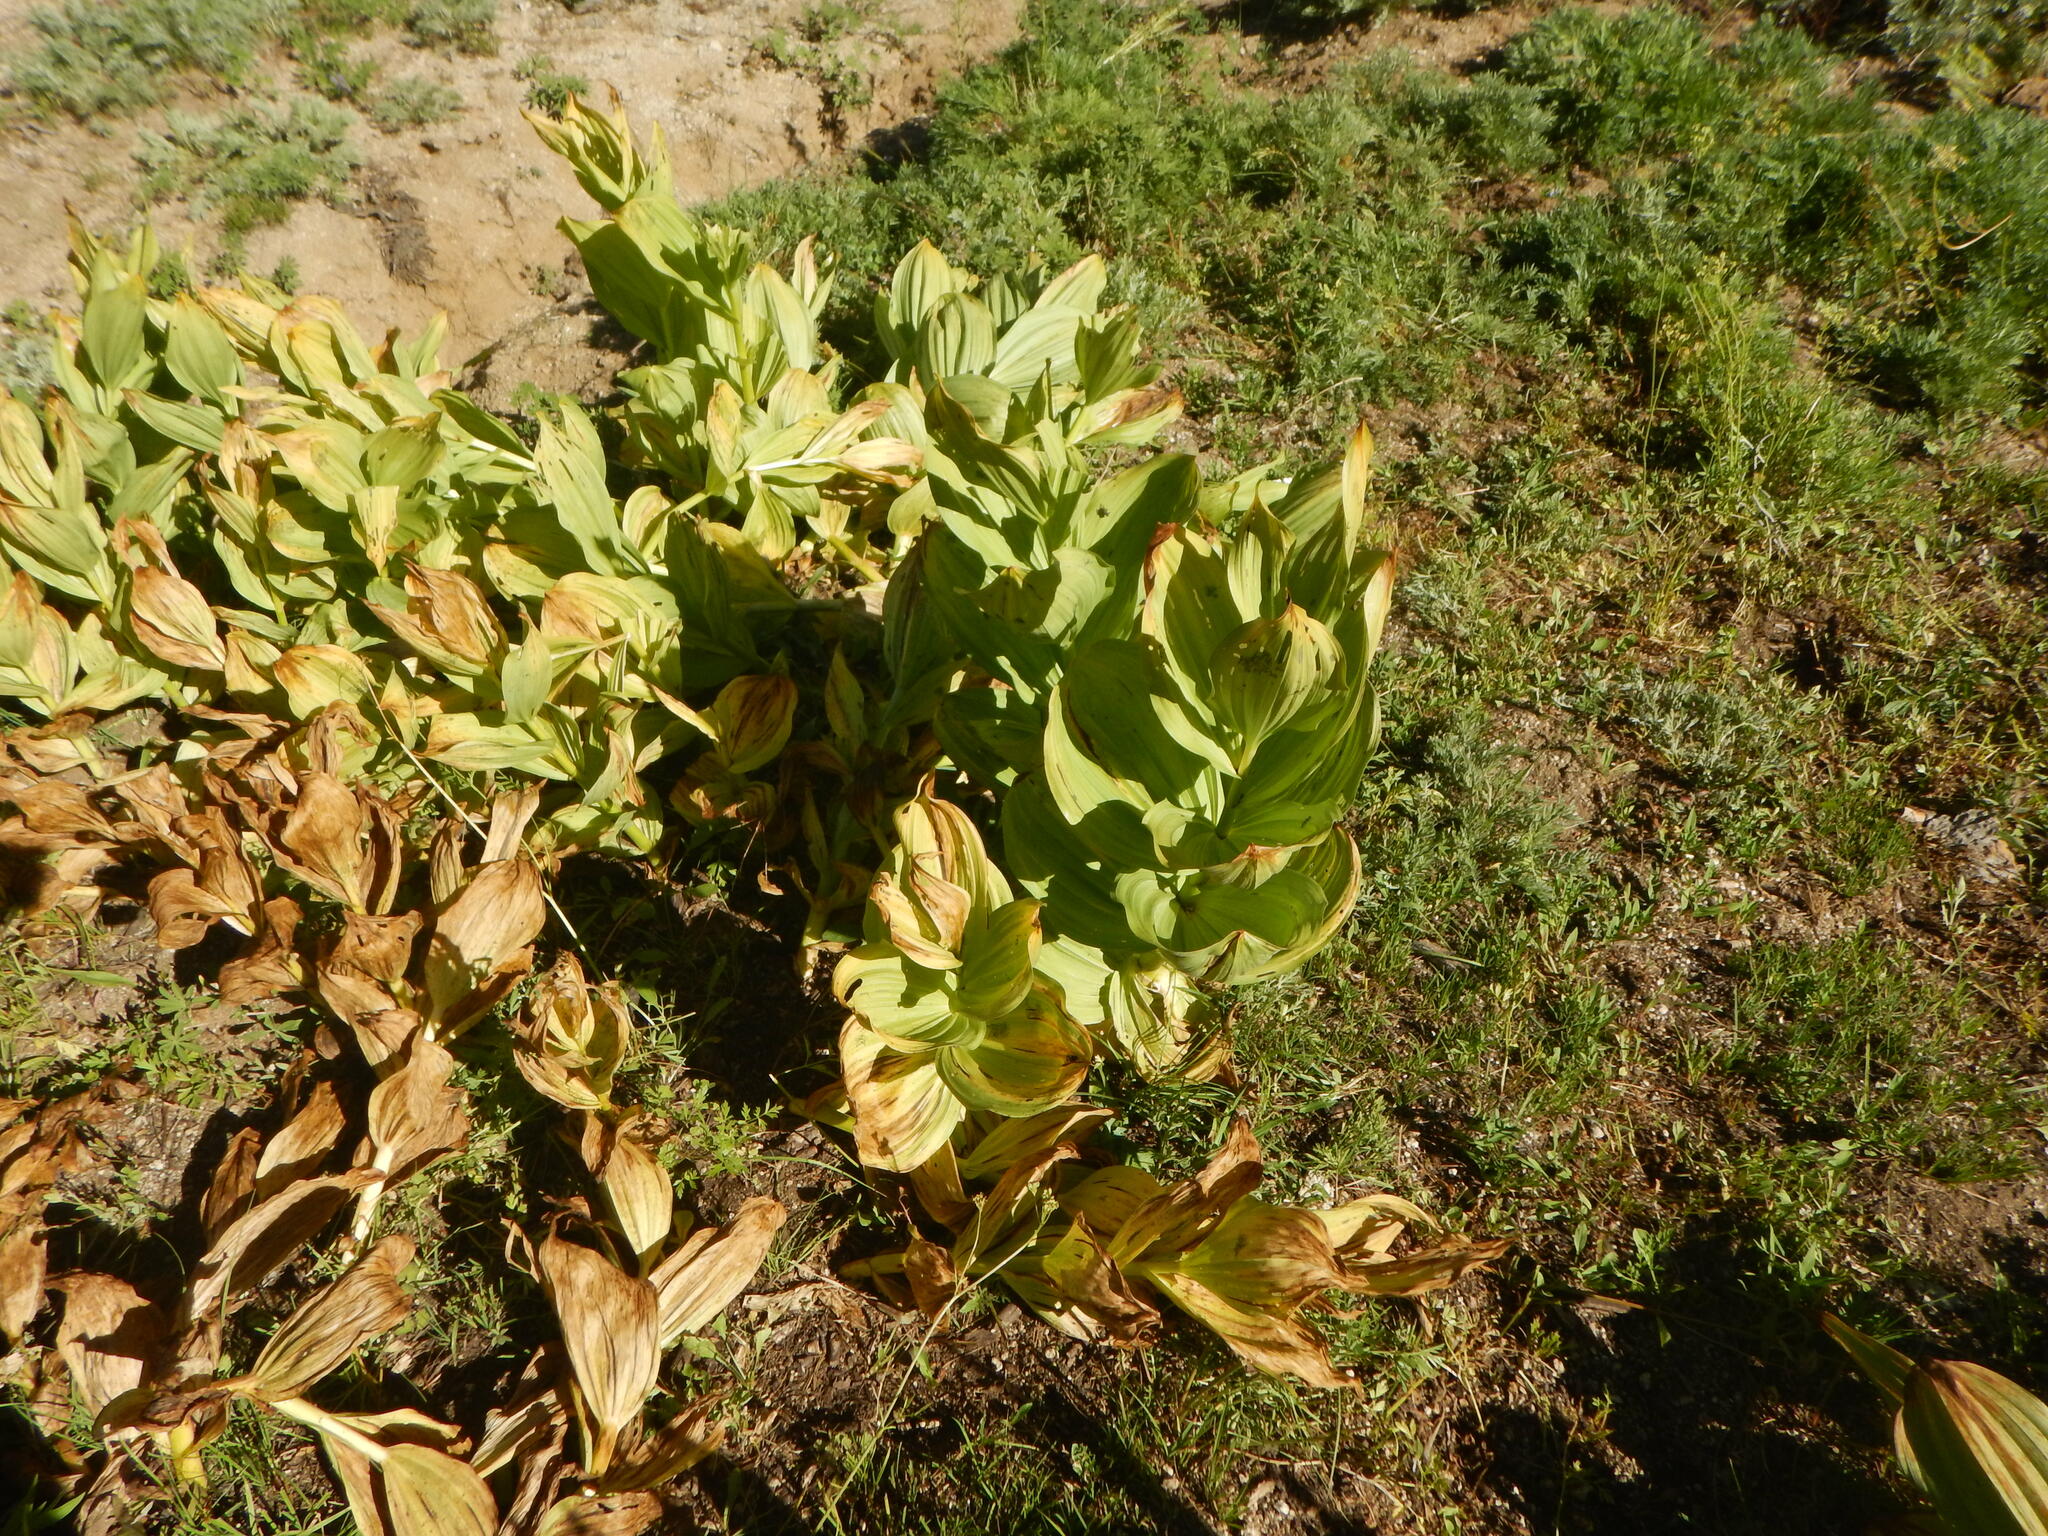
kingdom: Plantae
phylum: Tracheophyta
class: Liliopsida
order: Liliales
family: Melanthiaceae
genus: Veratrum
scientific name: Veratrum californicum
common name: California veratrum
